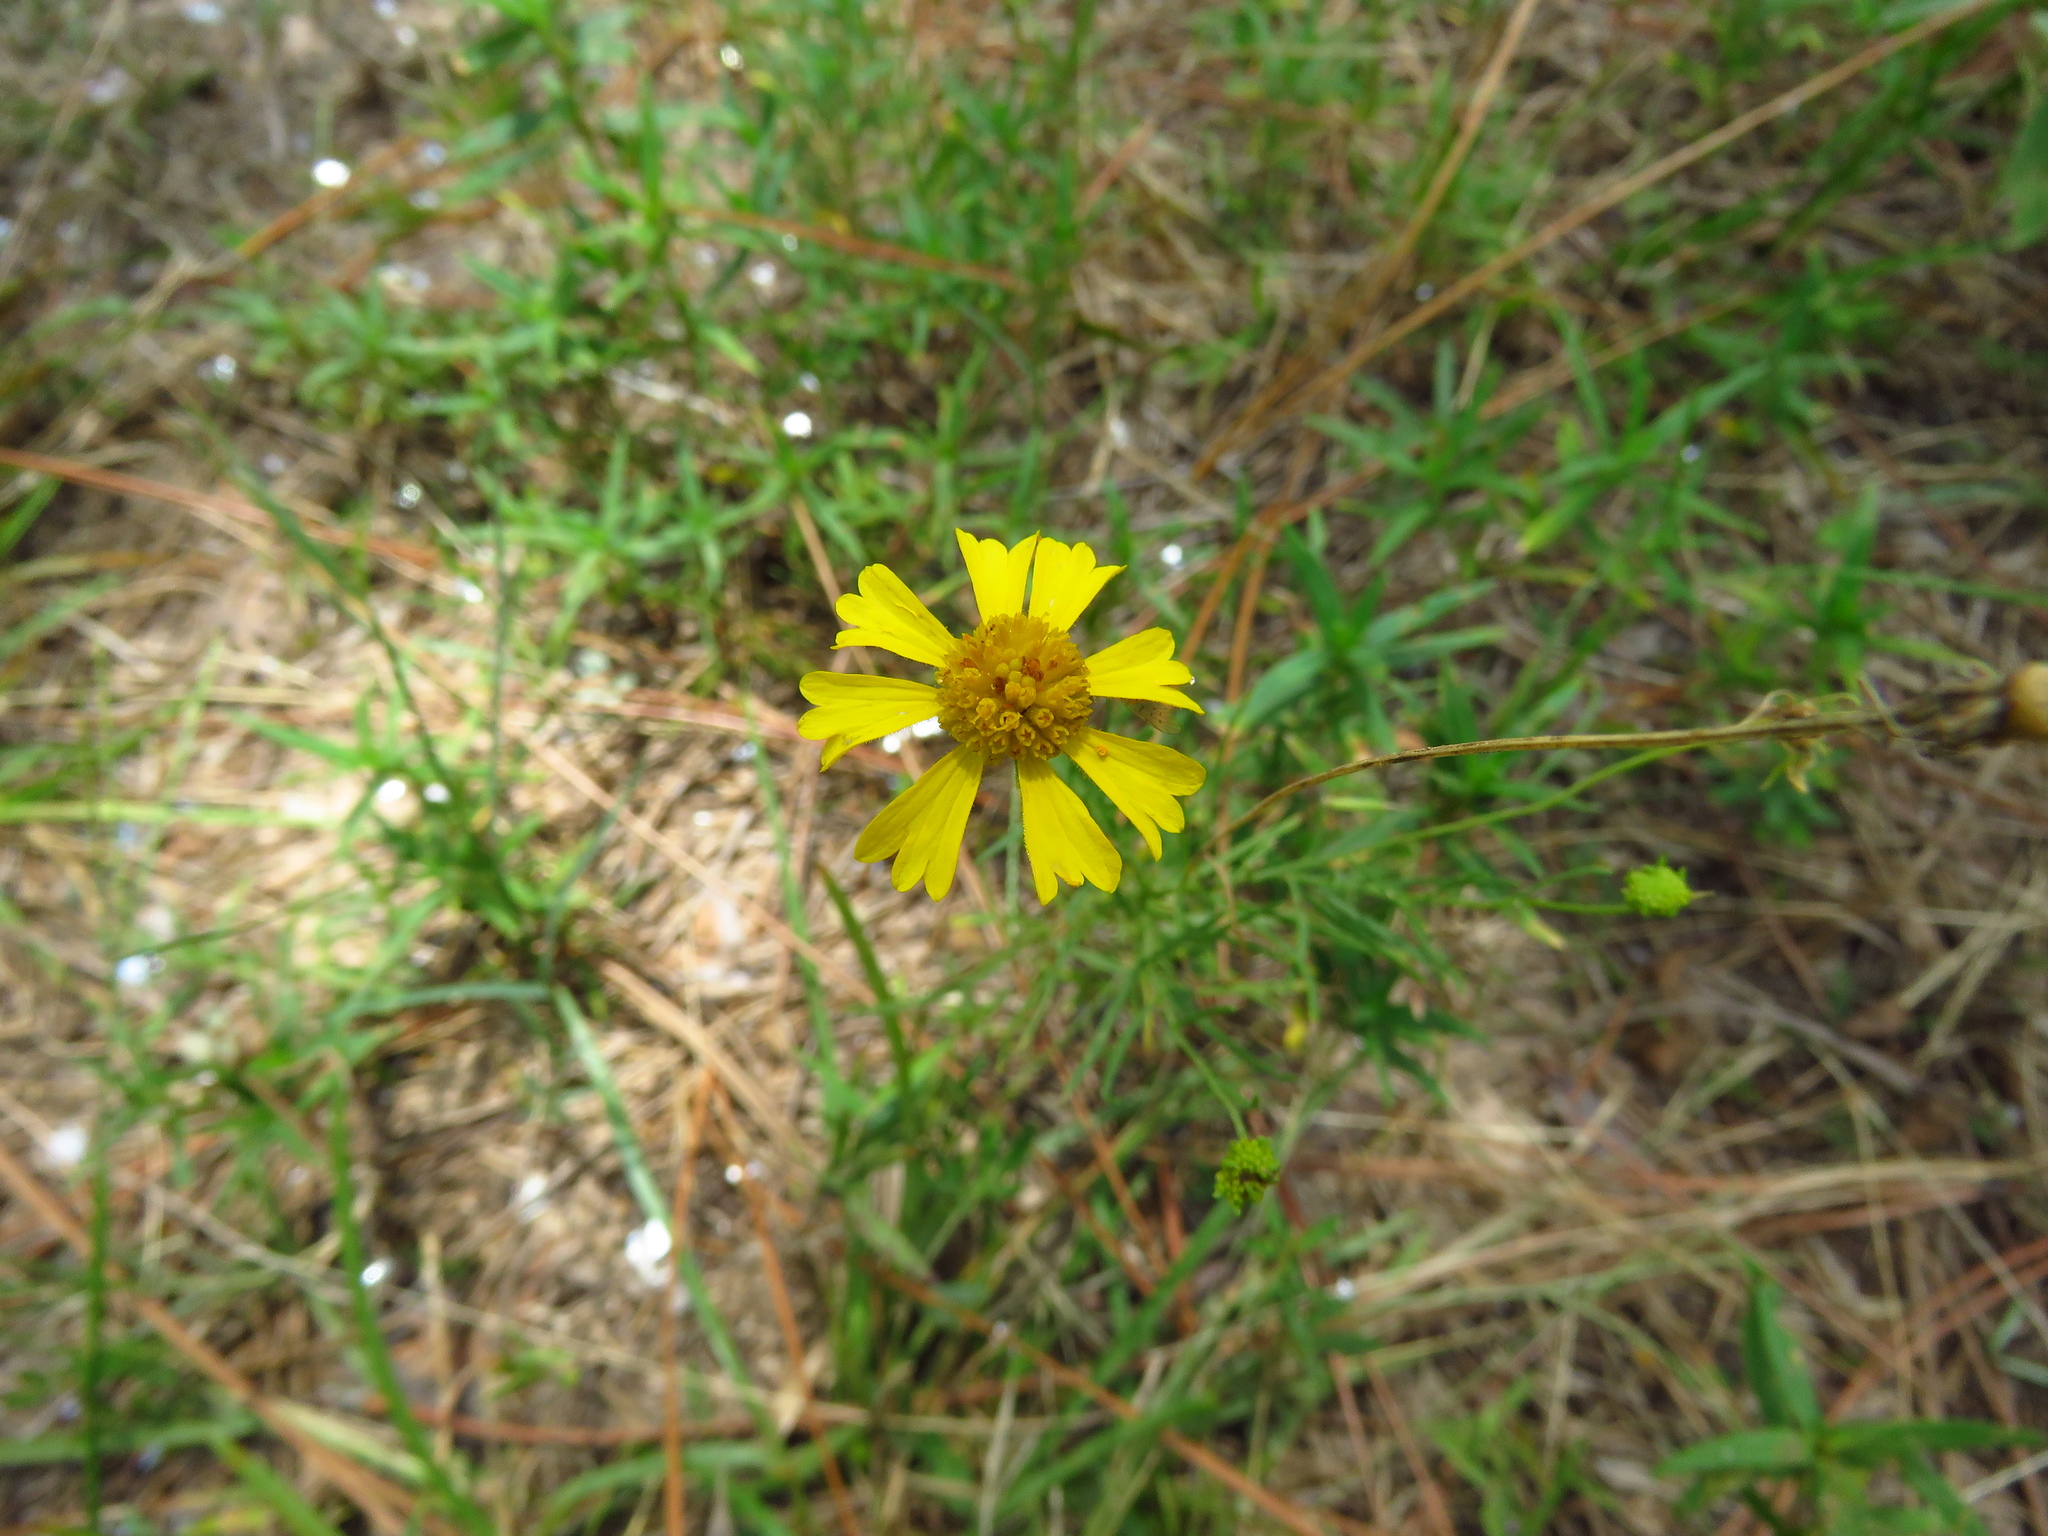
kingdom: Plantae
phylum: Tracheophyta
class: Magnoliopsida
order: Asterales
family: Asteraceae
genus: Helenium
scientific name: Helenium amarum
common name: Bitter sneezeweed
